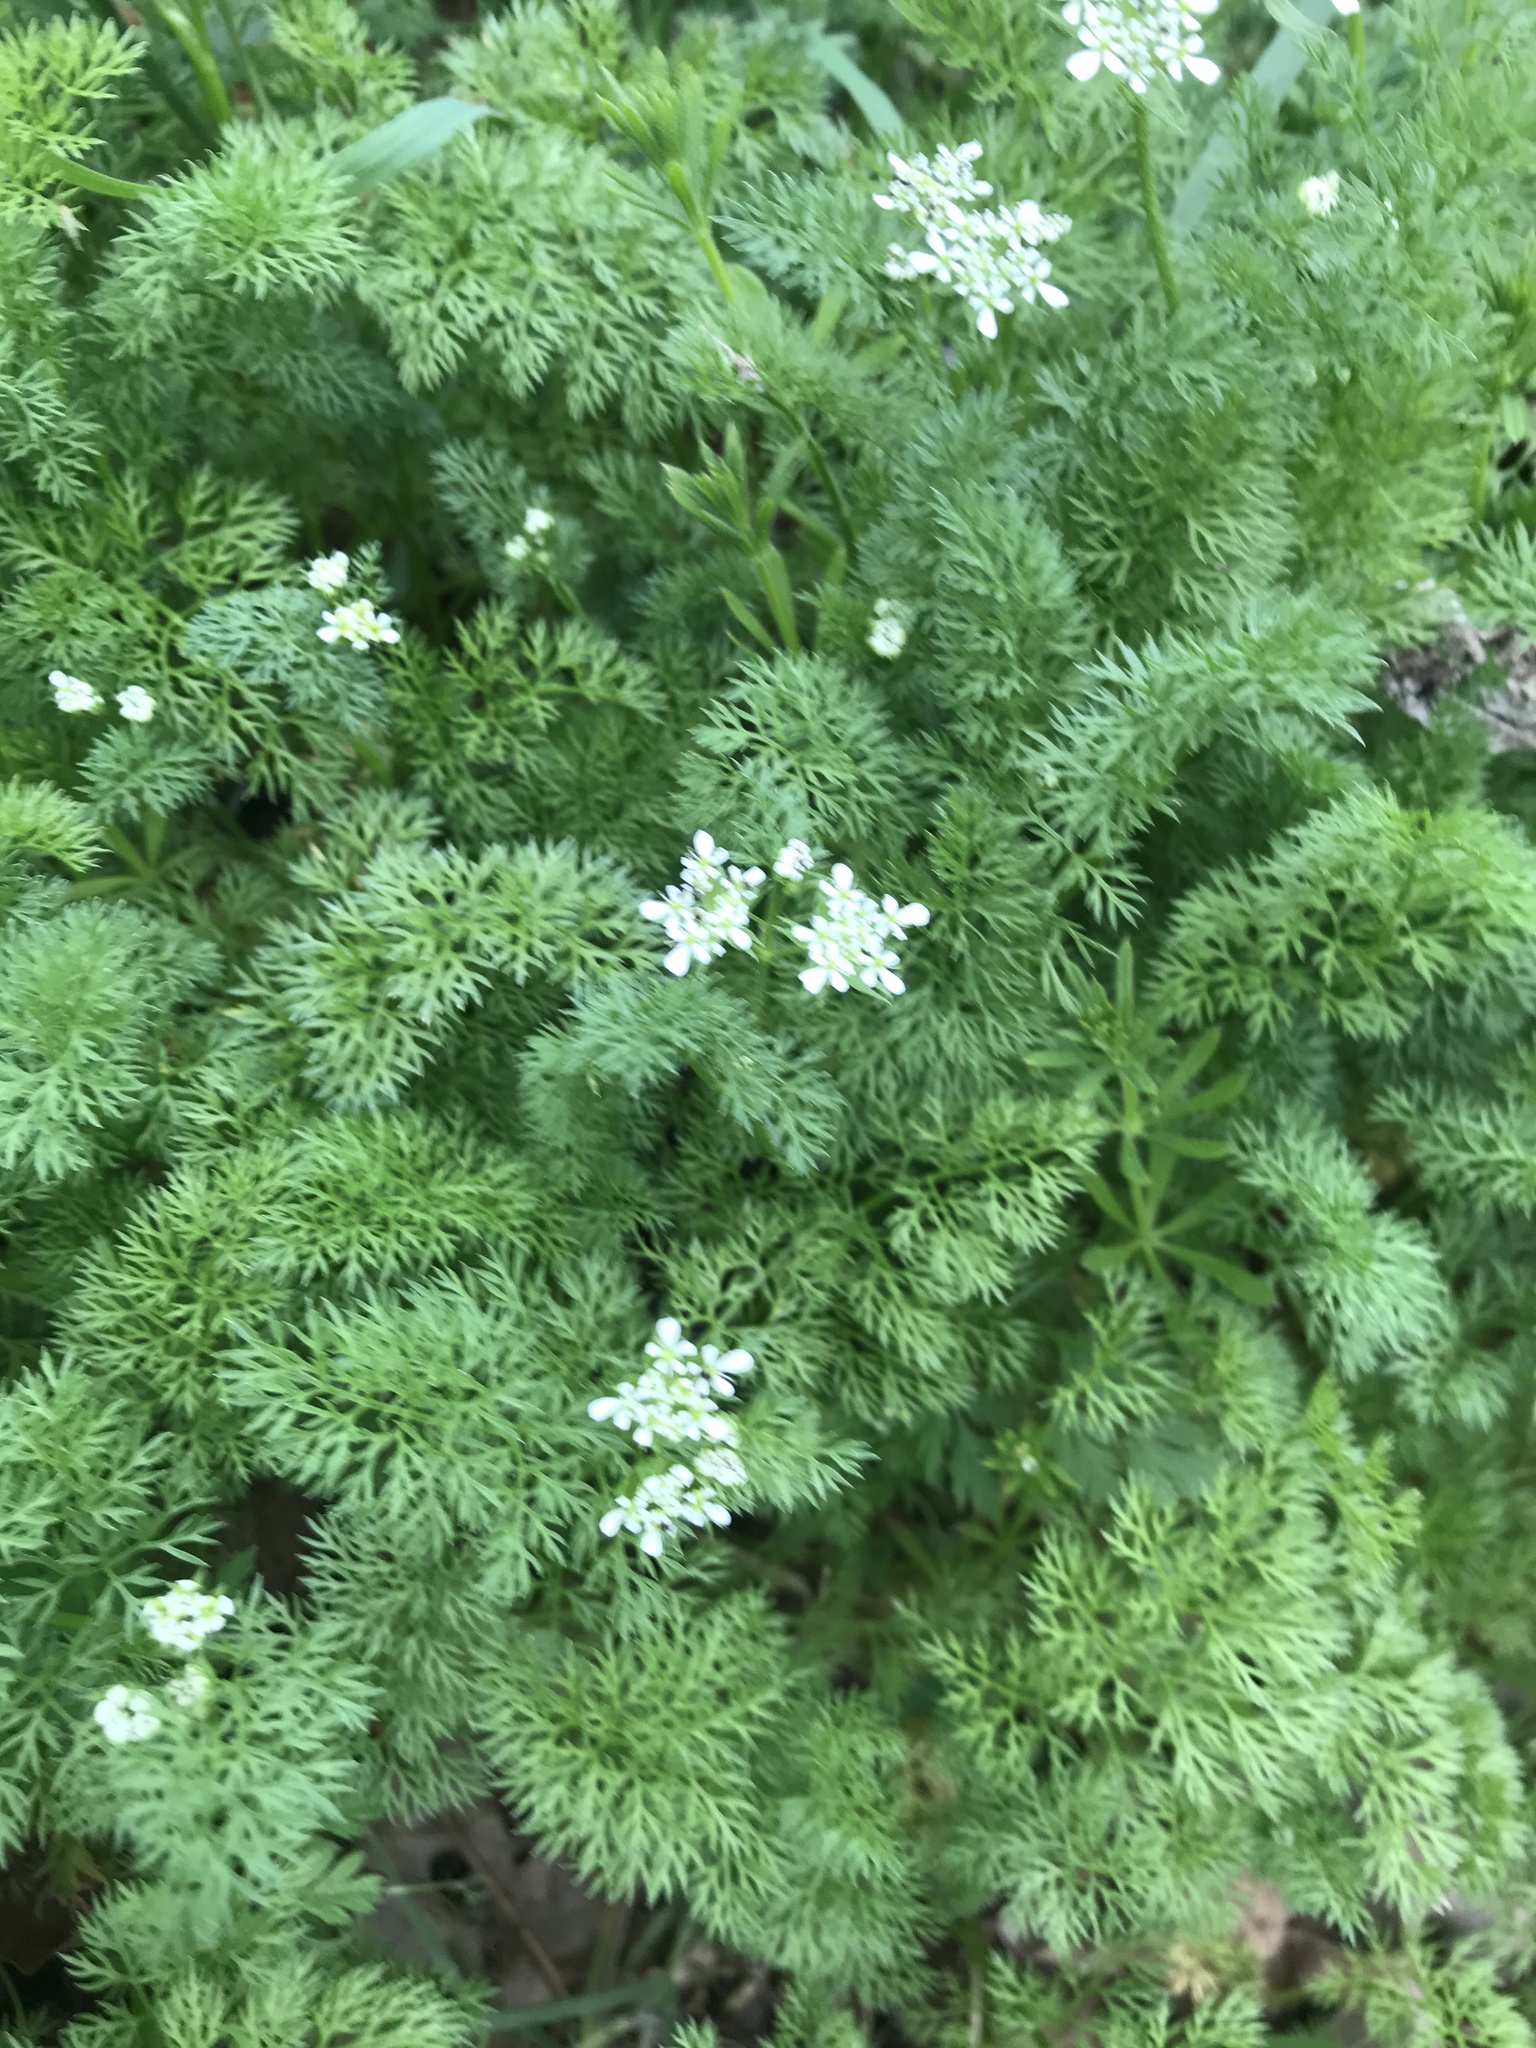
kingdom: Plantae
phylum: Tracheophyta
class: Magnoliopsida
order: Apiales
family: Apiaceae
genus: Scandix
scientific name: Scandix pecten-veneris
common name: Shepherd's-needle
